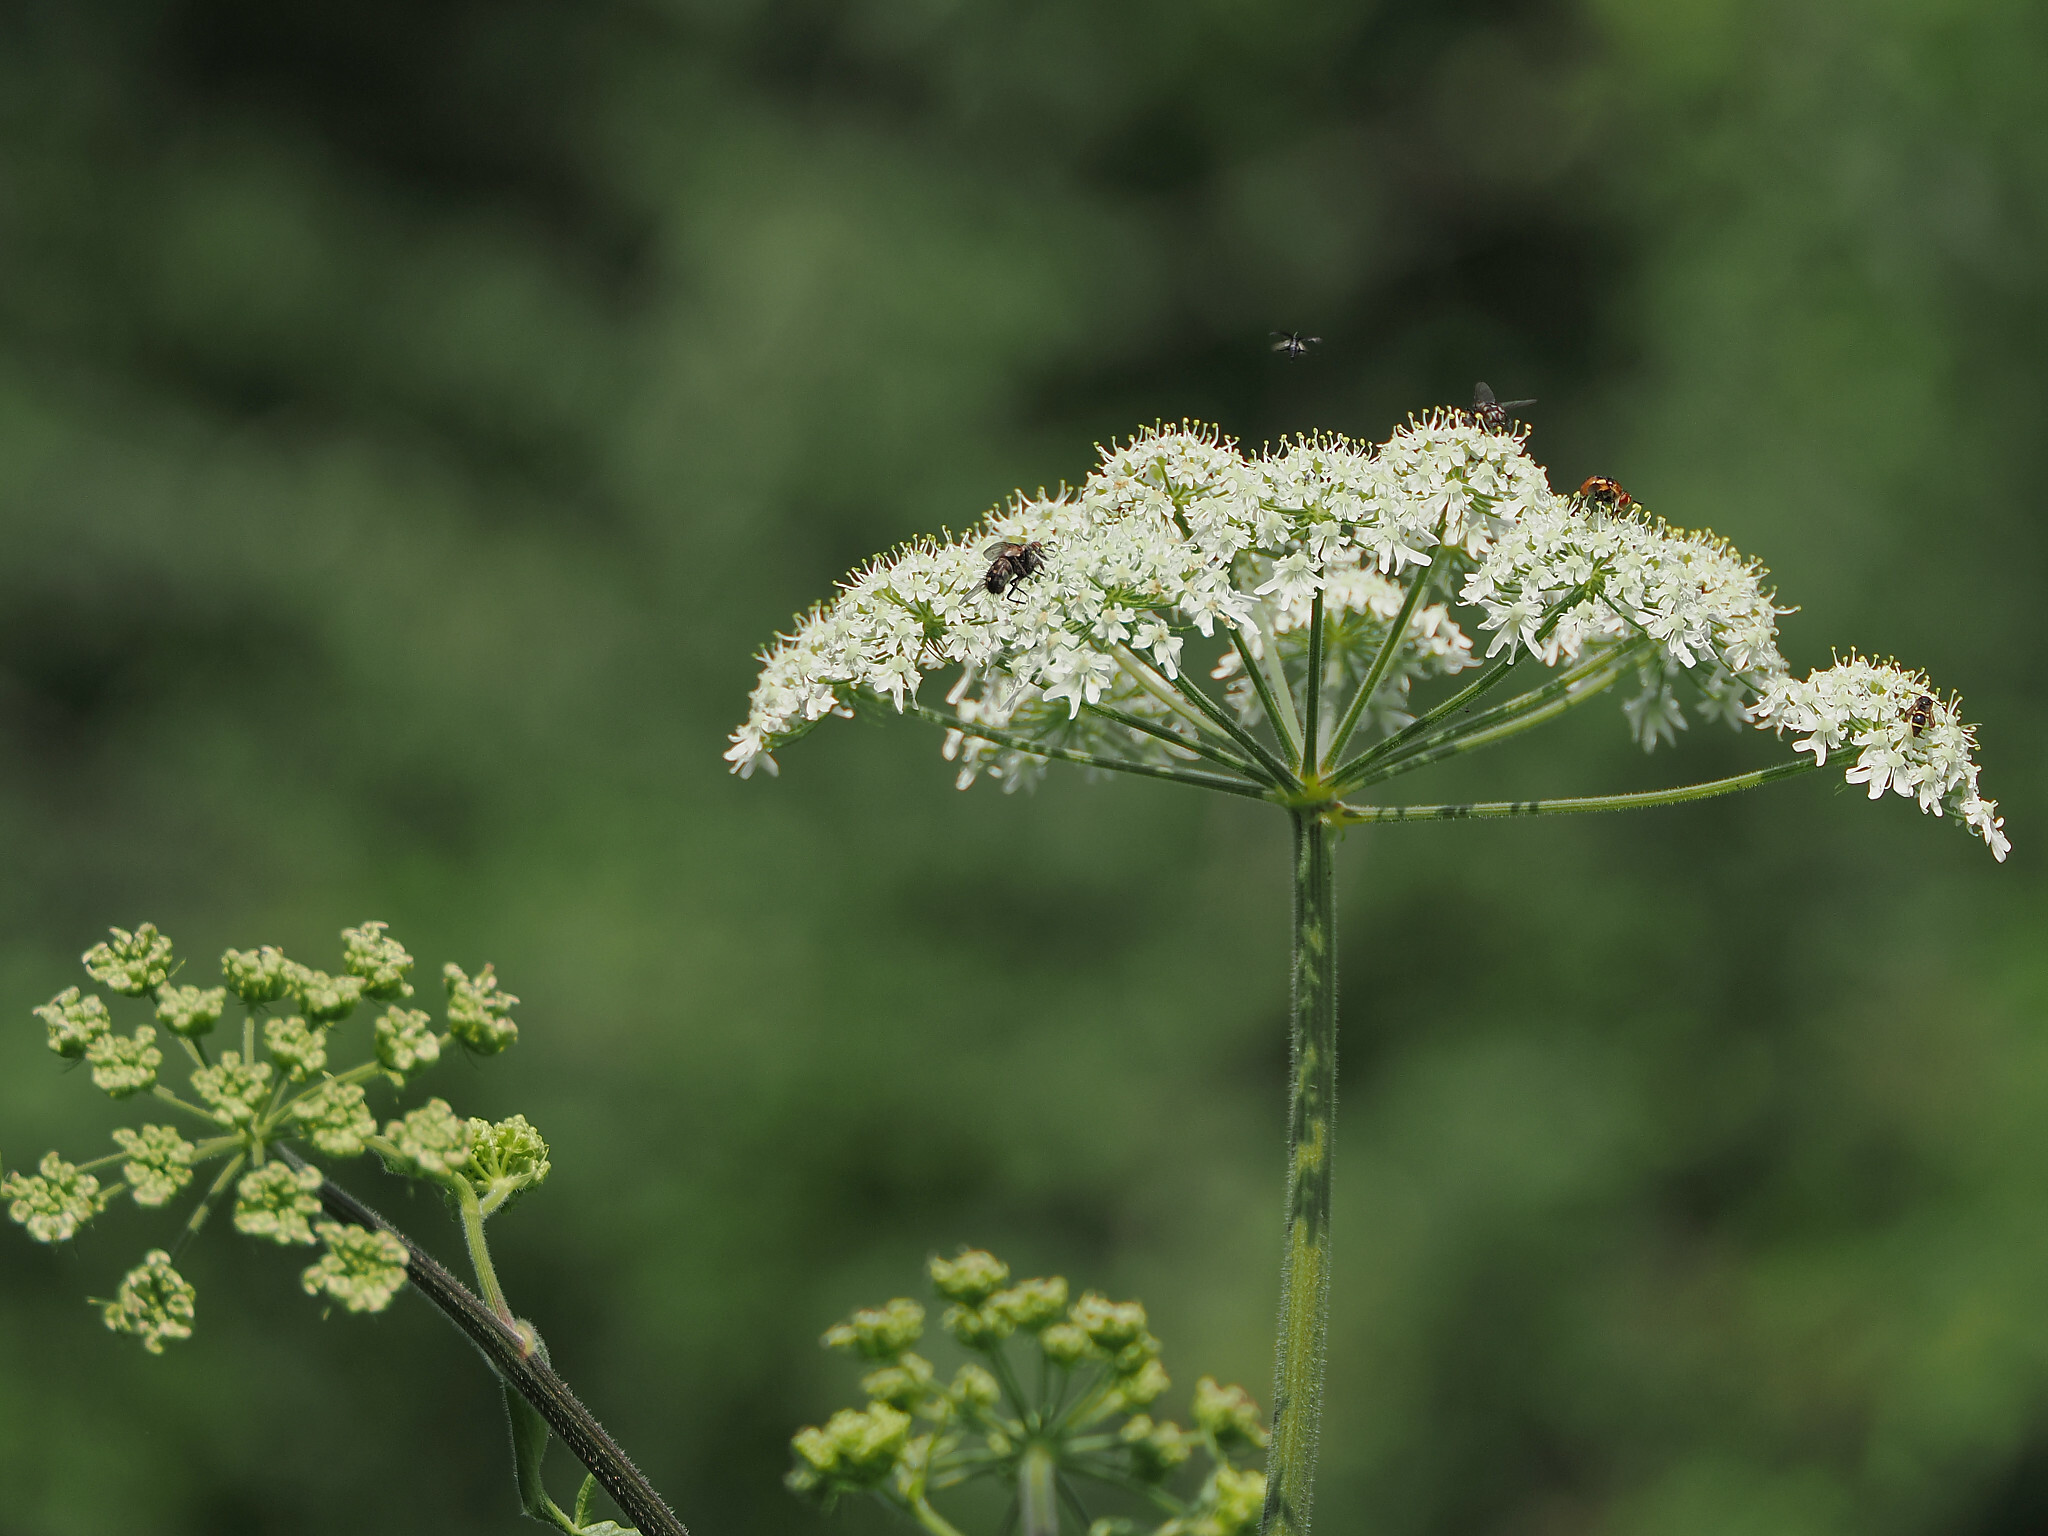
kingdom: Plantae
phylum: Tracheophyta
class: Magnoliopsida
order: Apiales
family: Apiaceae
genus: Heracleum
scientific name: Heracleum sphondylium
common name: Hogweed
